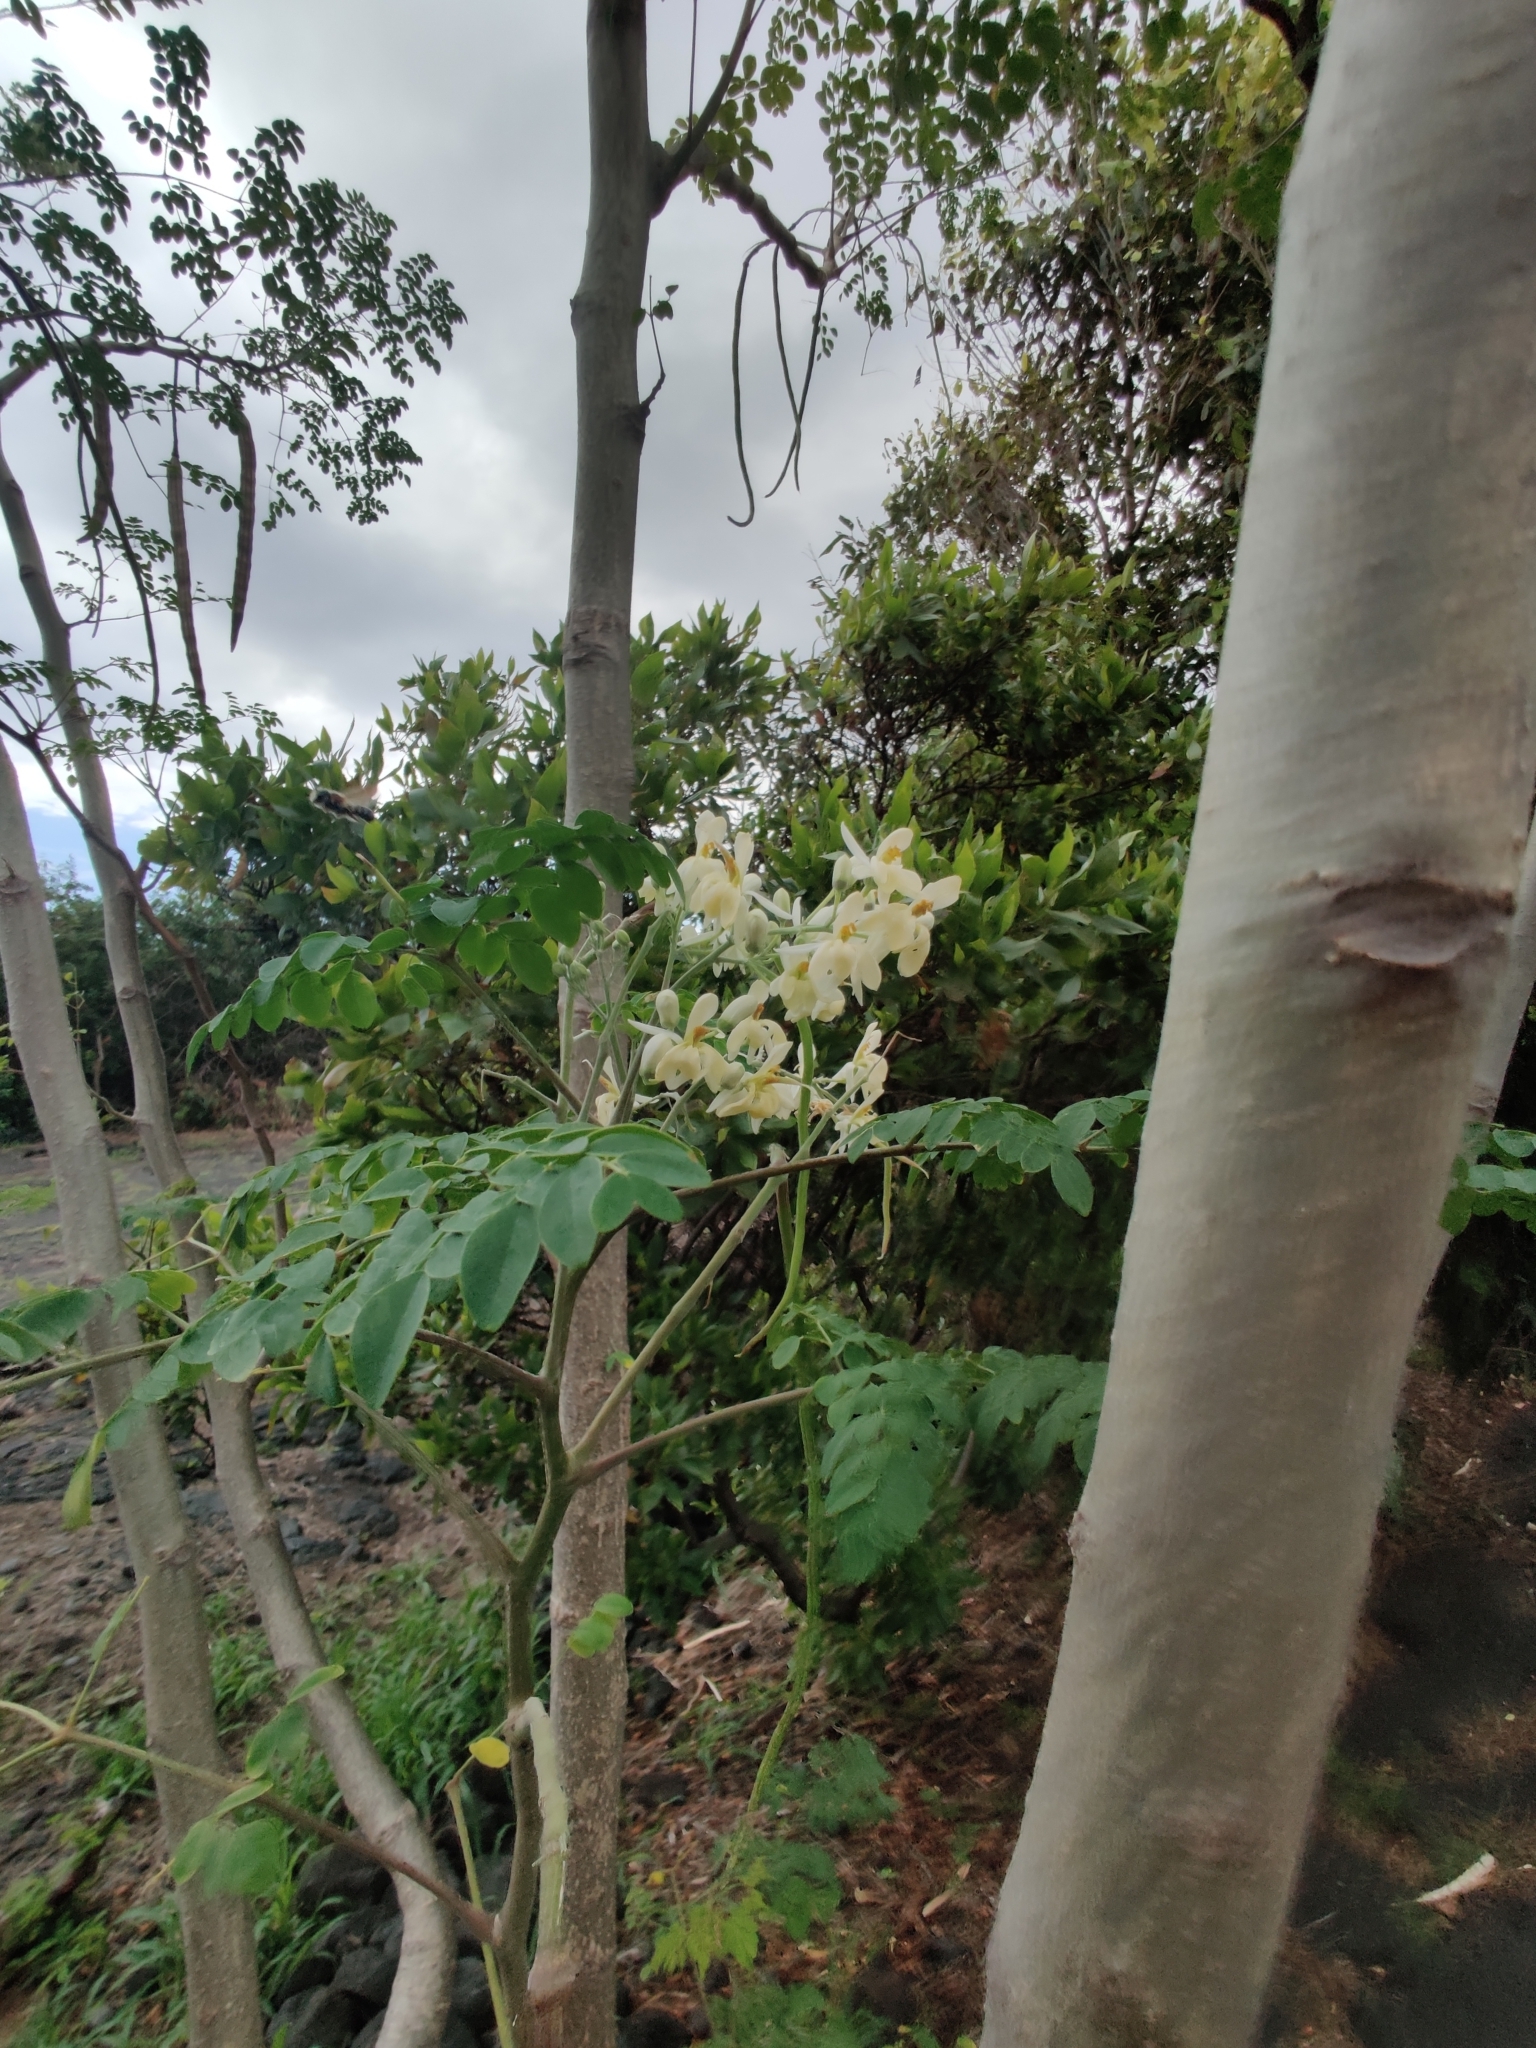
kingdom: Plantae
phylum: Tracheophyta
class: Magnoliopsida
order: Brassicales
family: Moringaceae
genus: Moringa
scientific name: Moringa oleifera
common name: Horseradish-tree
